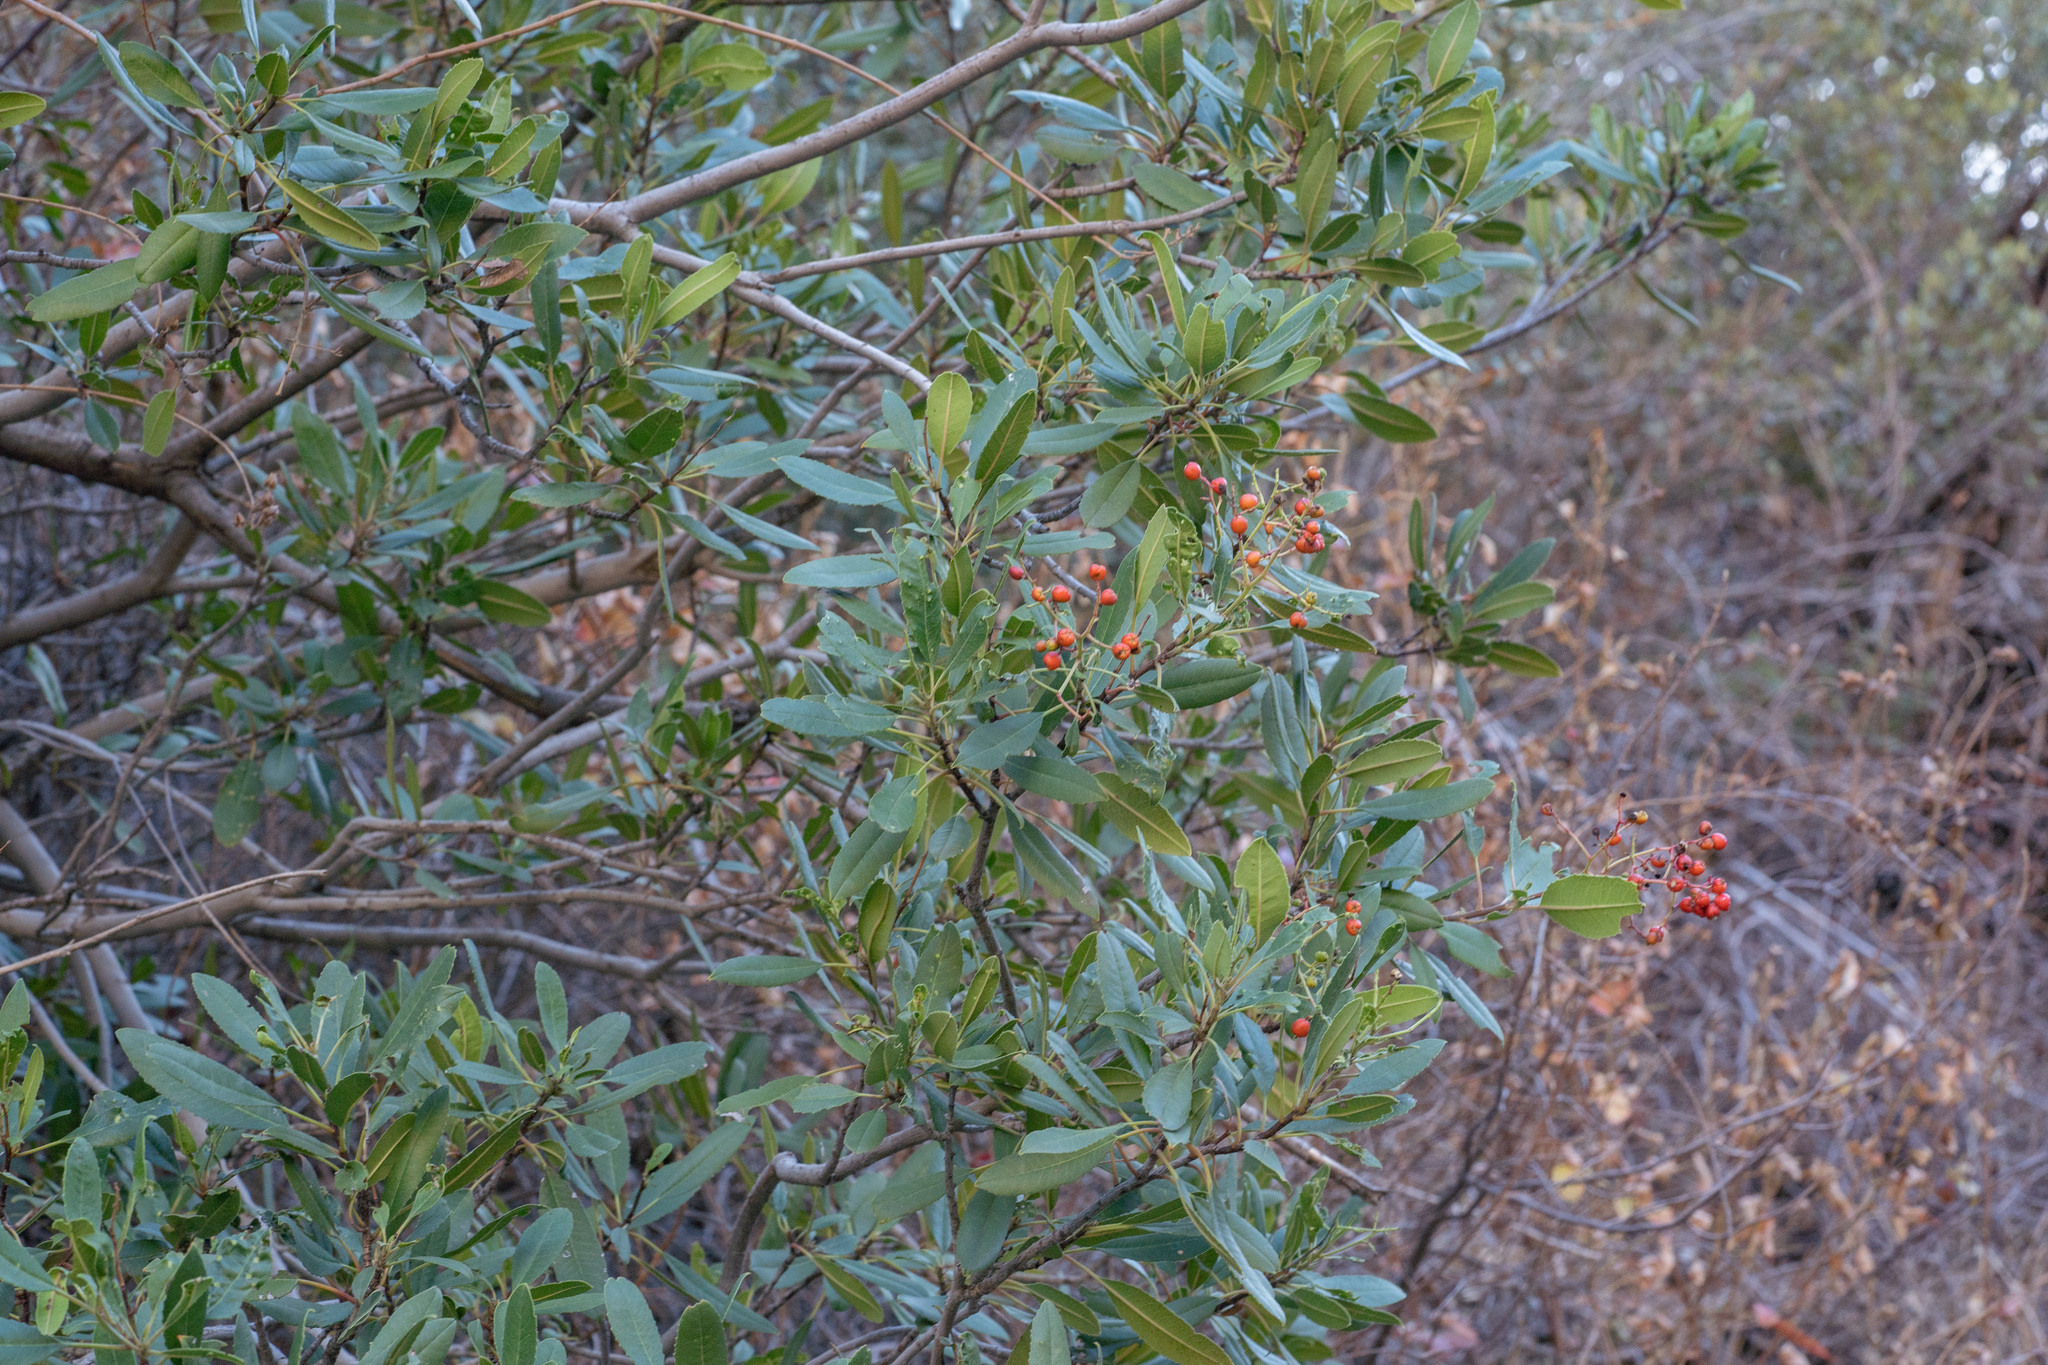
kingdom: Plantae
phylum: Tracheophyta
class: Magnoliopsida
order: Rosales
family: Rosaceae
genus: Heteromeles
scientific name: Heteromeles arbutifolia
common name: California-holly
